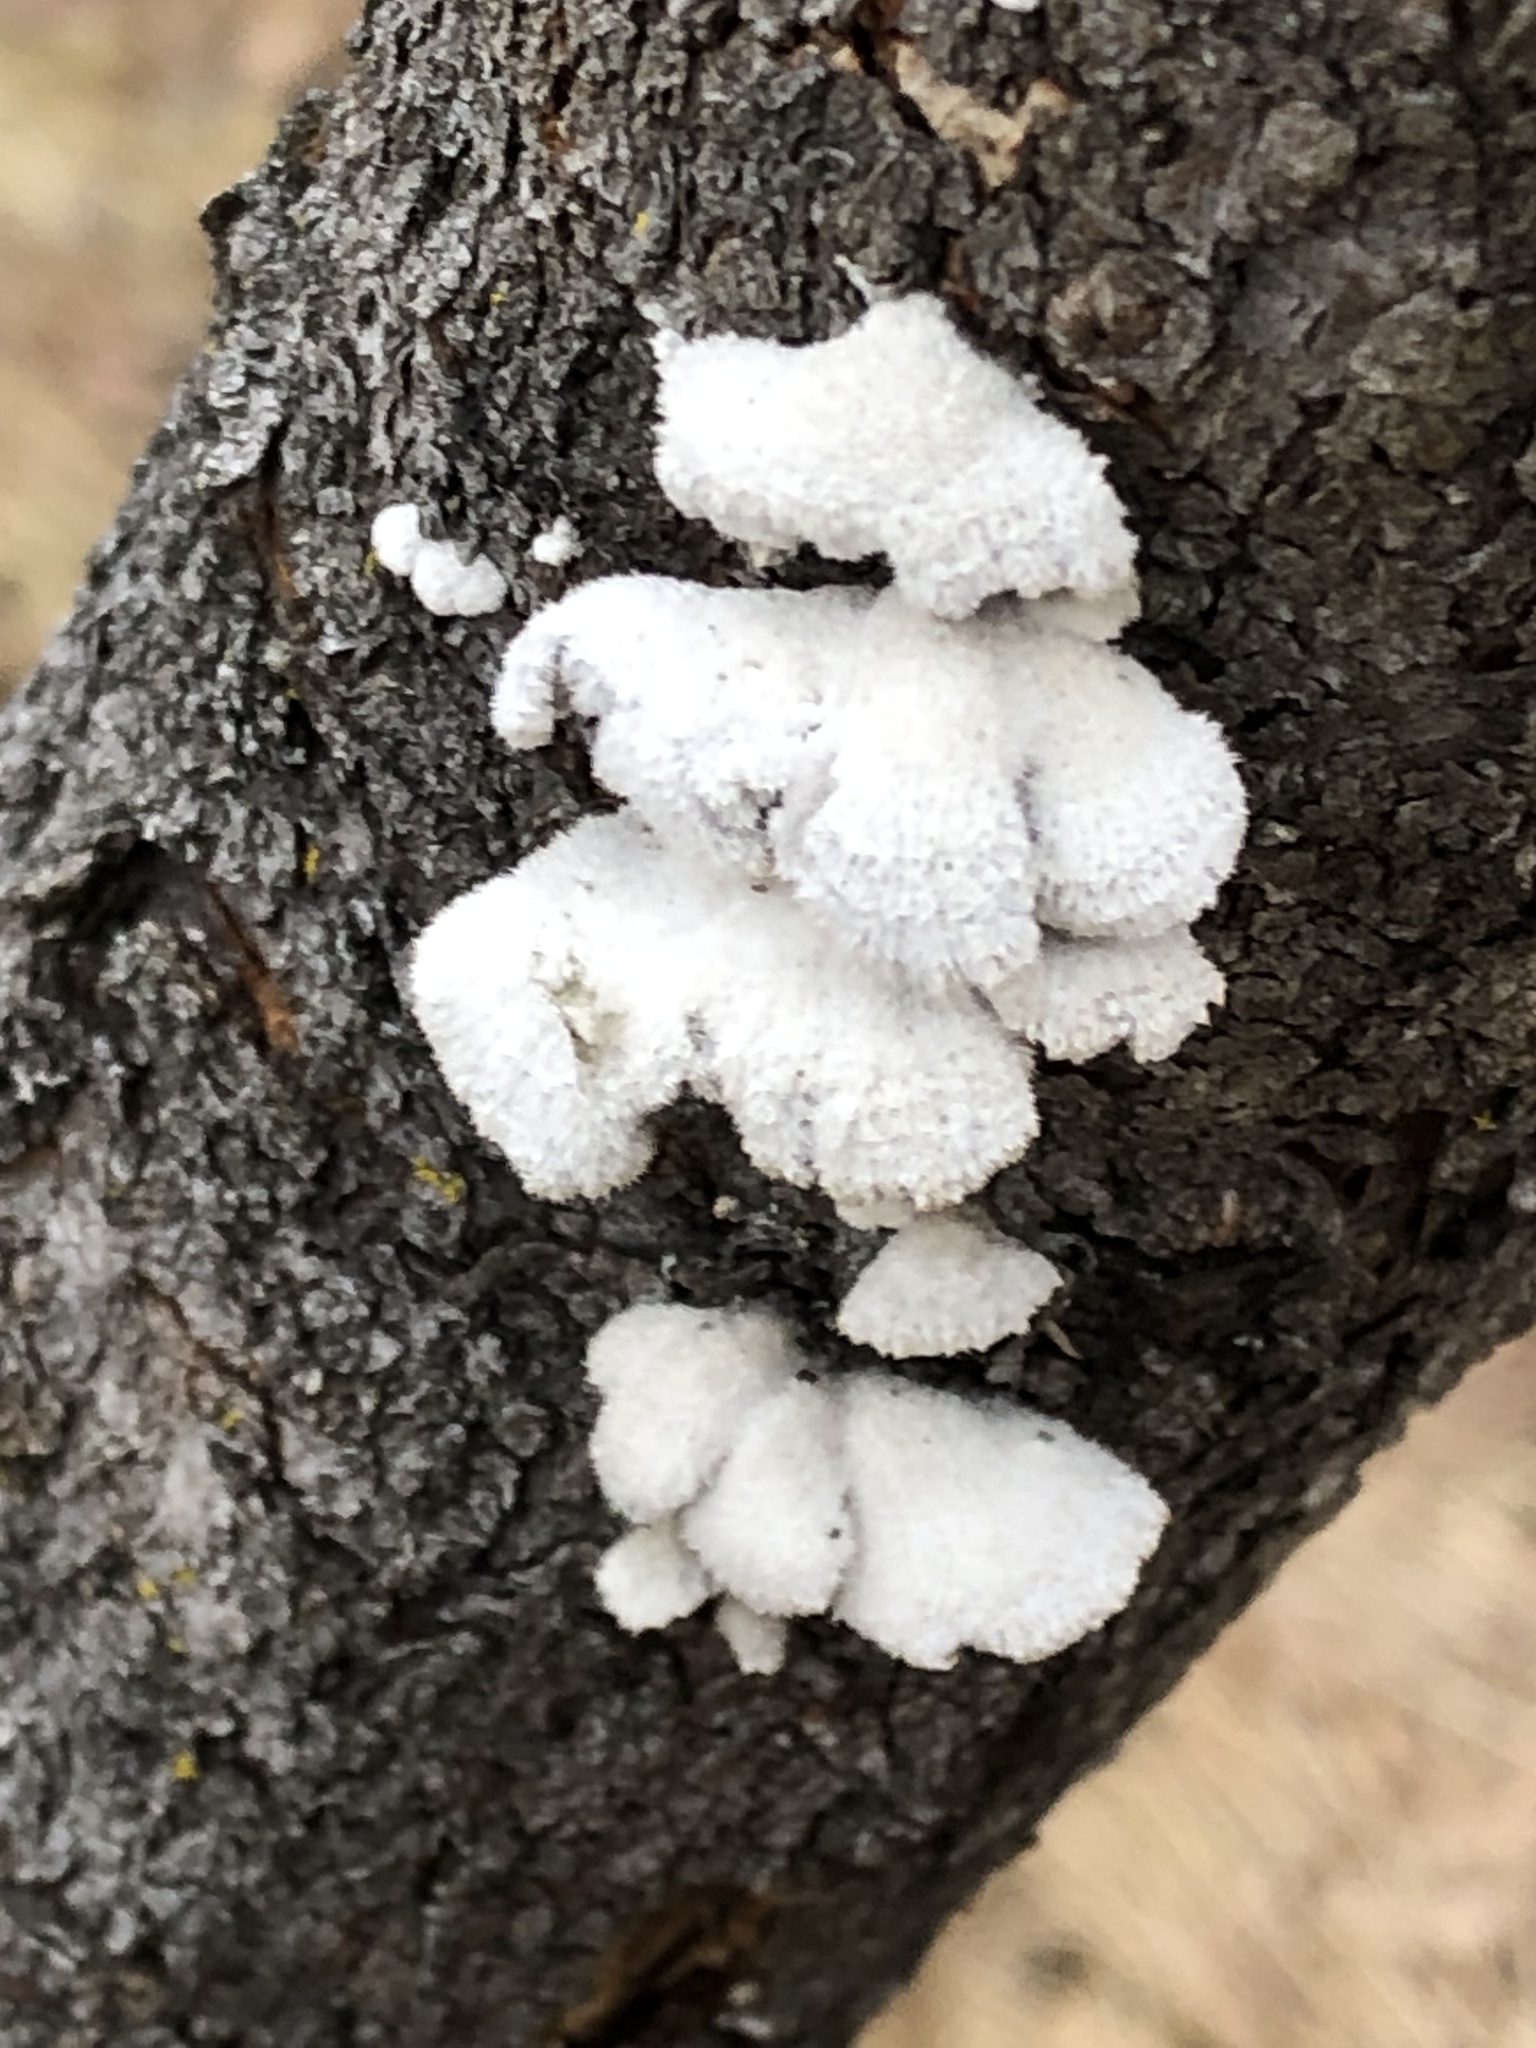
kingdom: Fungi
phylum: Basidiomycota
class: Agaricomycetes
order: Agaricales
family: Schizophyllaceae
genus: Schizophyllum
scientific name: Schizophyllum commune
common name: Common porecrust
